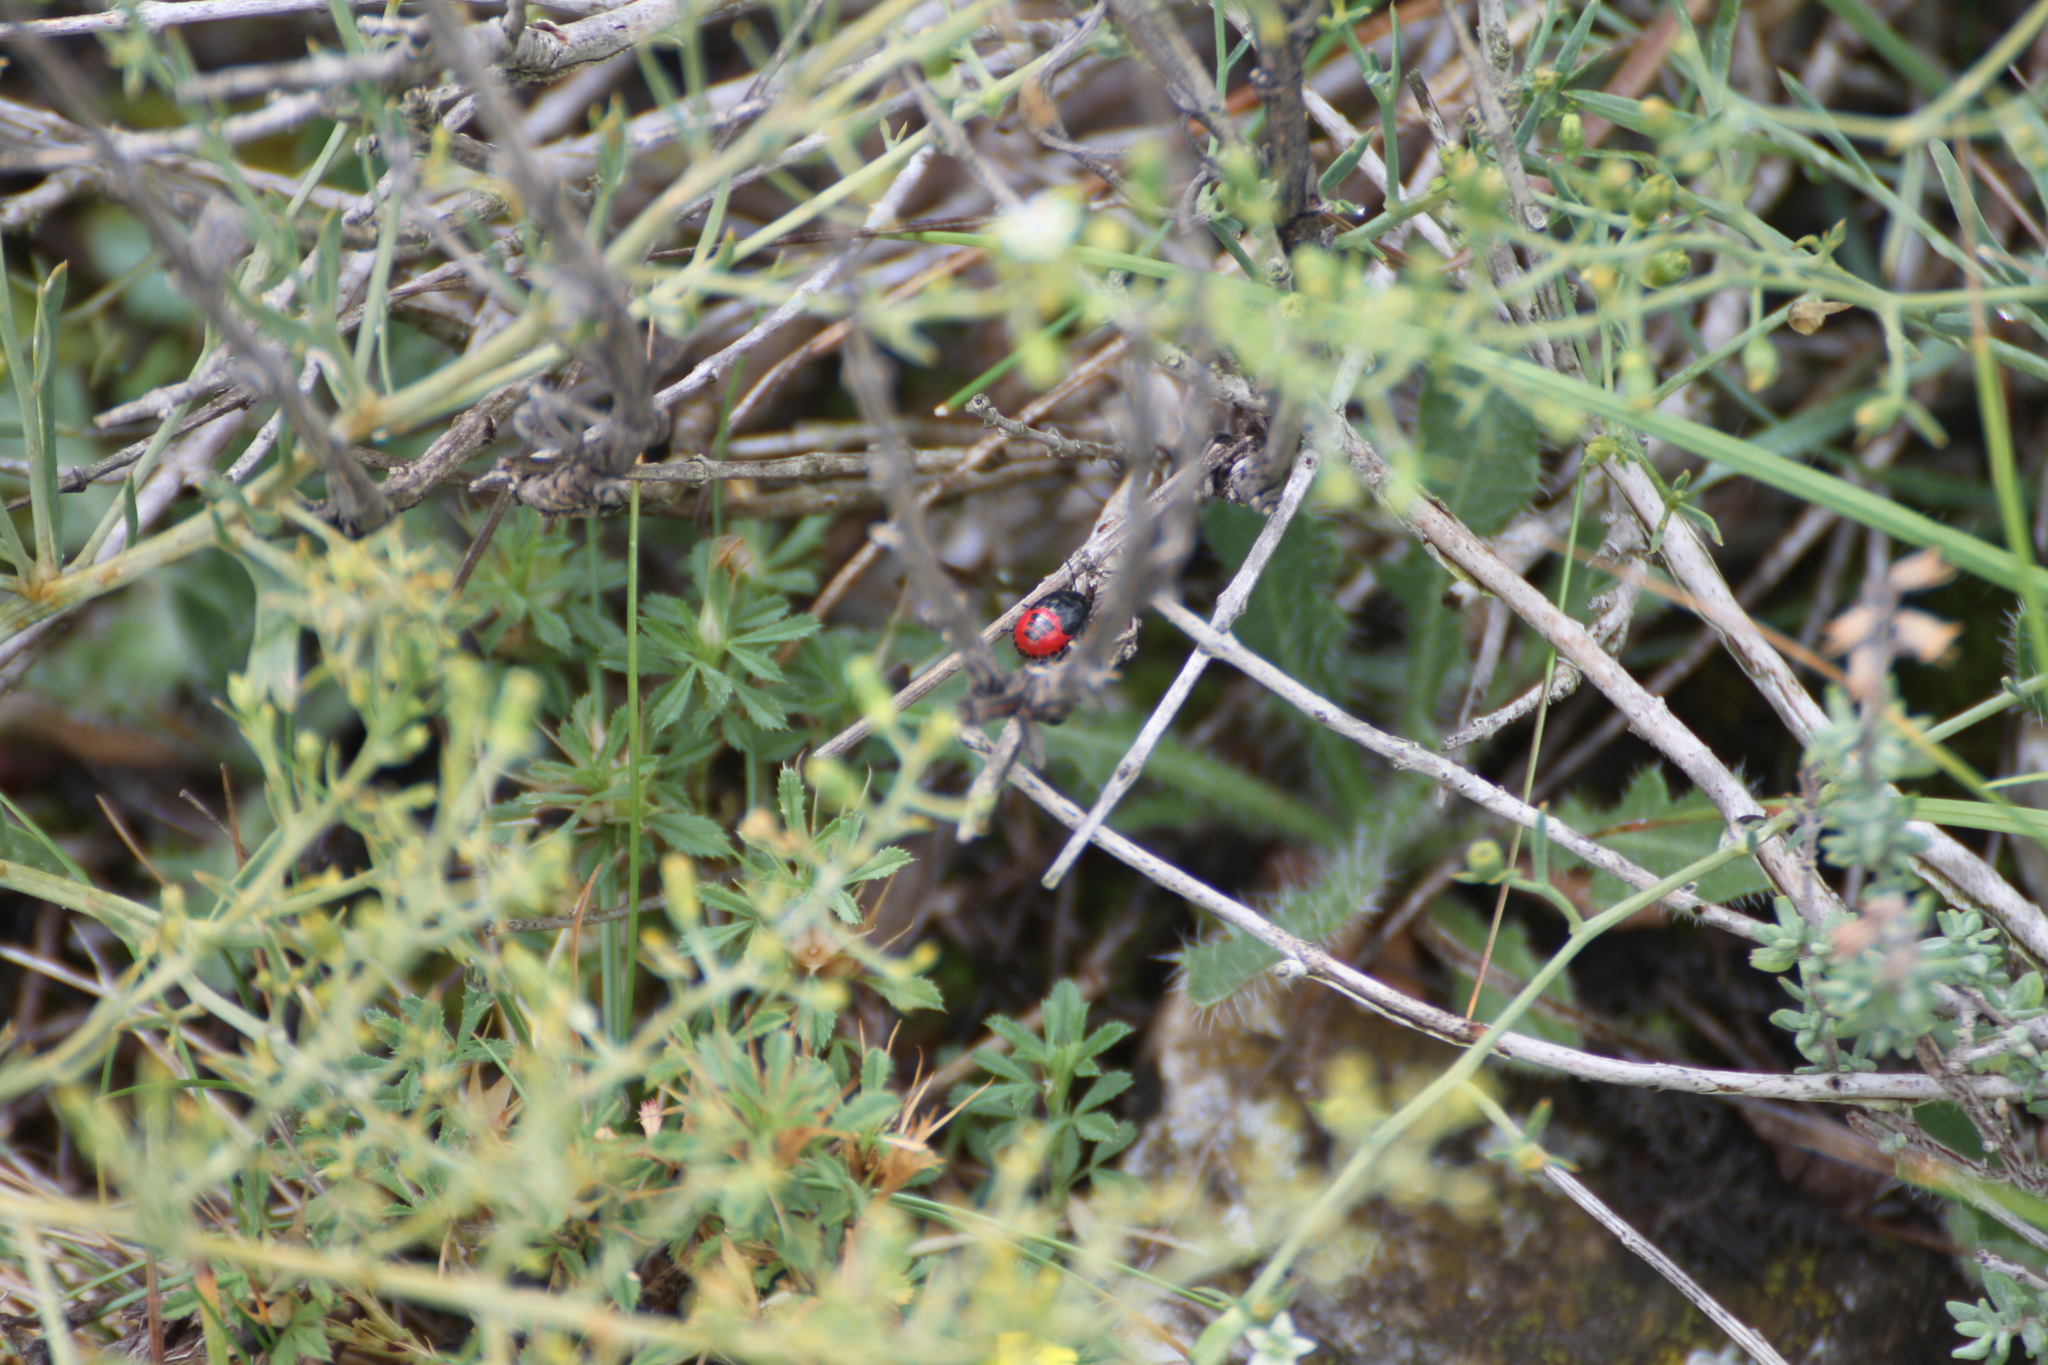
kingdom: Animalia
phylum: Arthropoda
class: Insecta
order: Hemiptera
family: Cydnidae
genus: Canthophorus
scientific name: Canthophorus melanopterus
